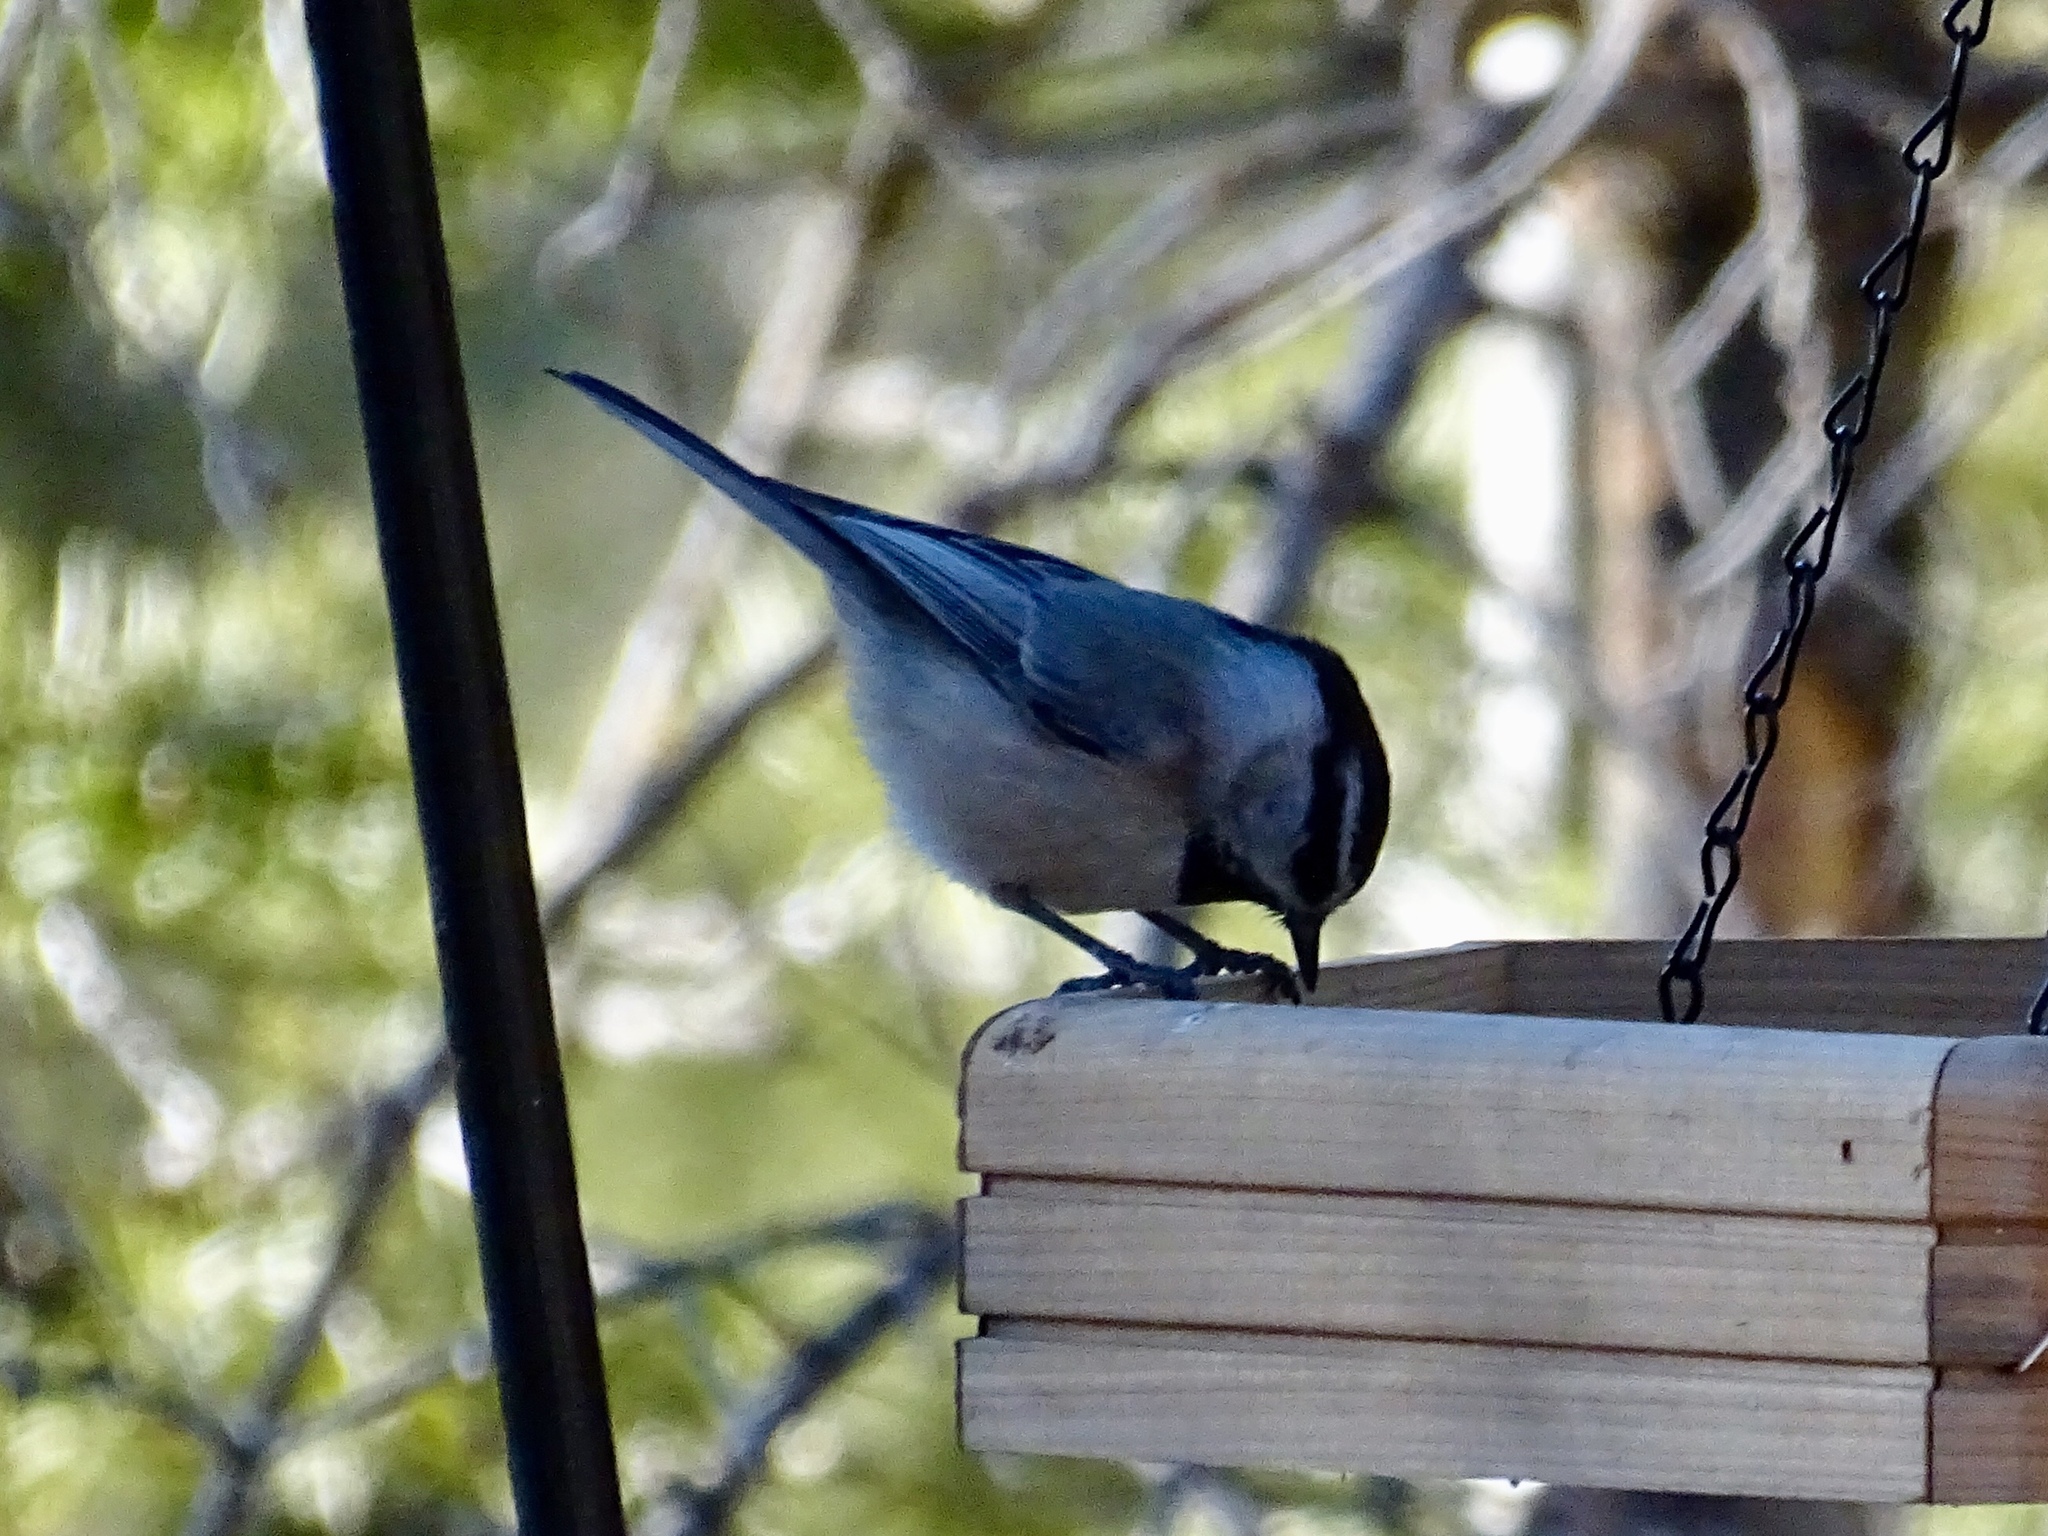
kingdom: Animalia
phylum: Chordata
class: Aves
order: Passeriformes
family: Paridae
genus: Poecile
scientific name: Poecile gambeli
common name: Mountain chickadee
